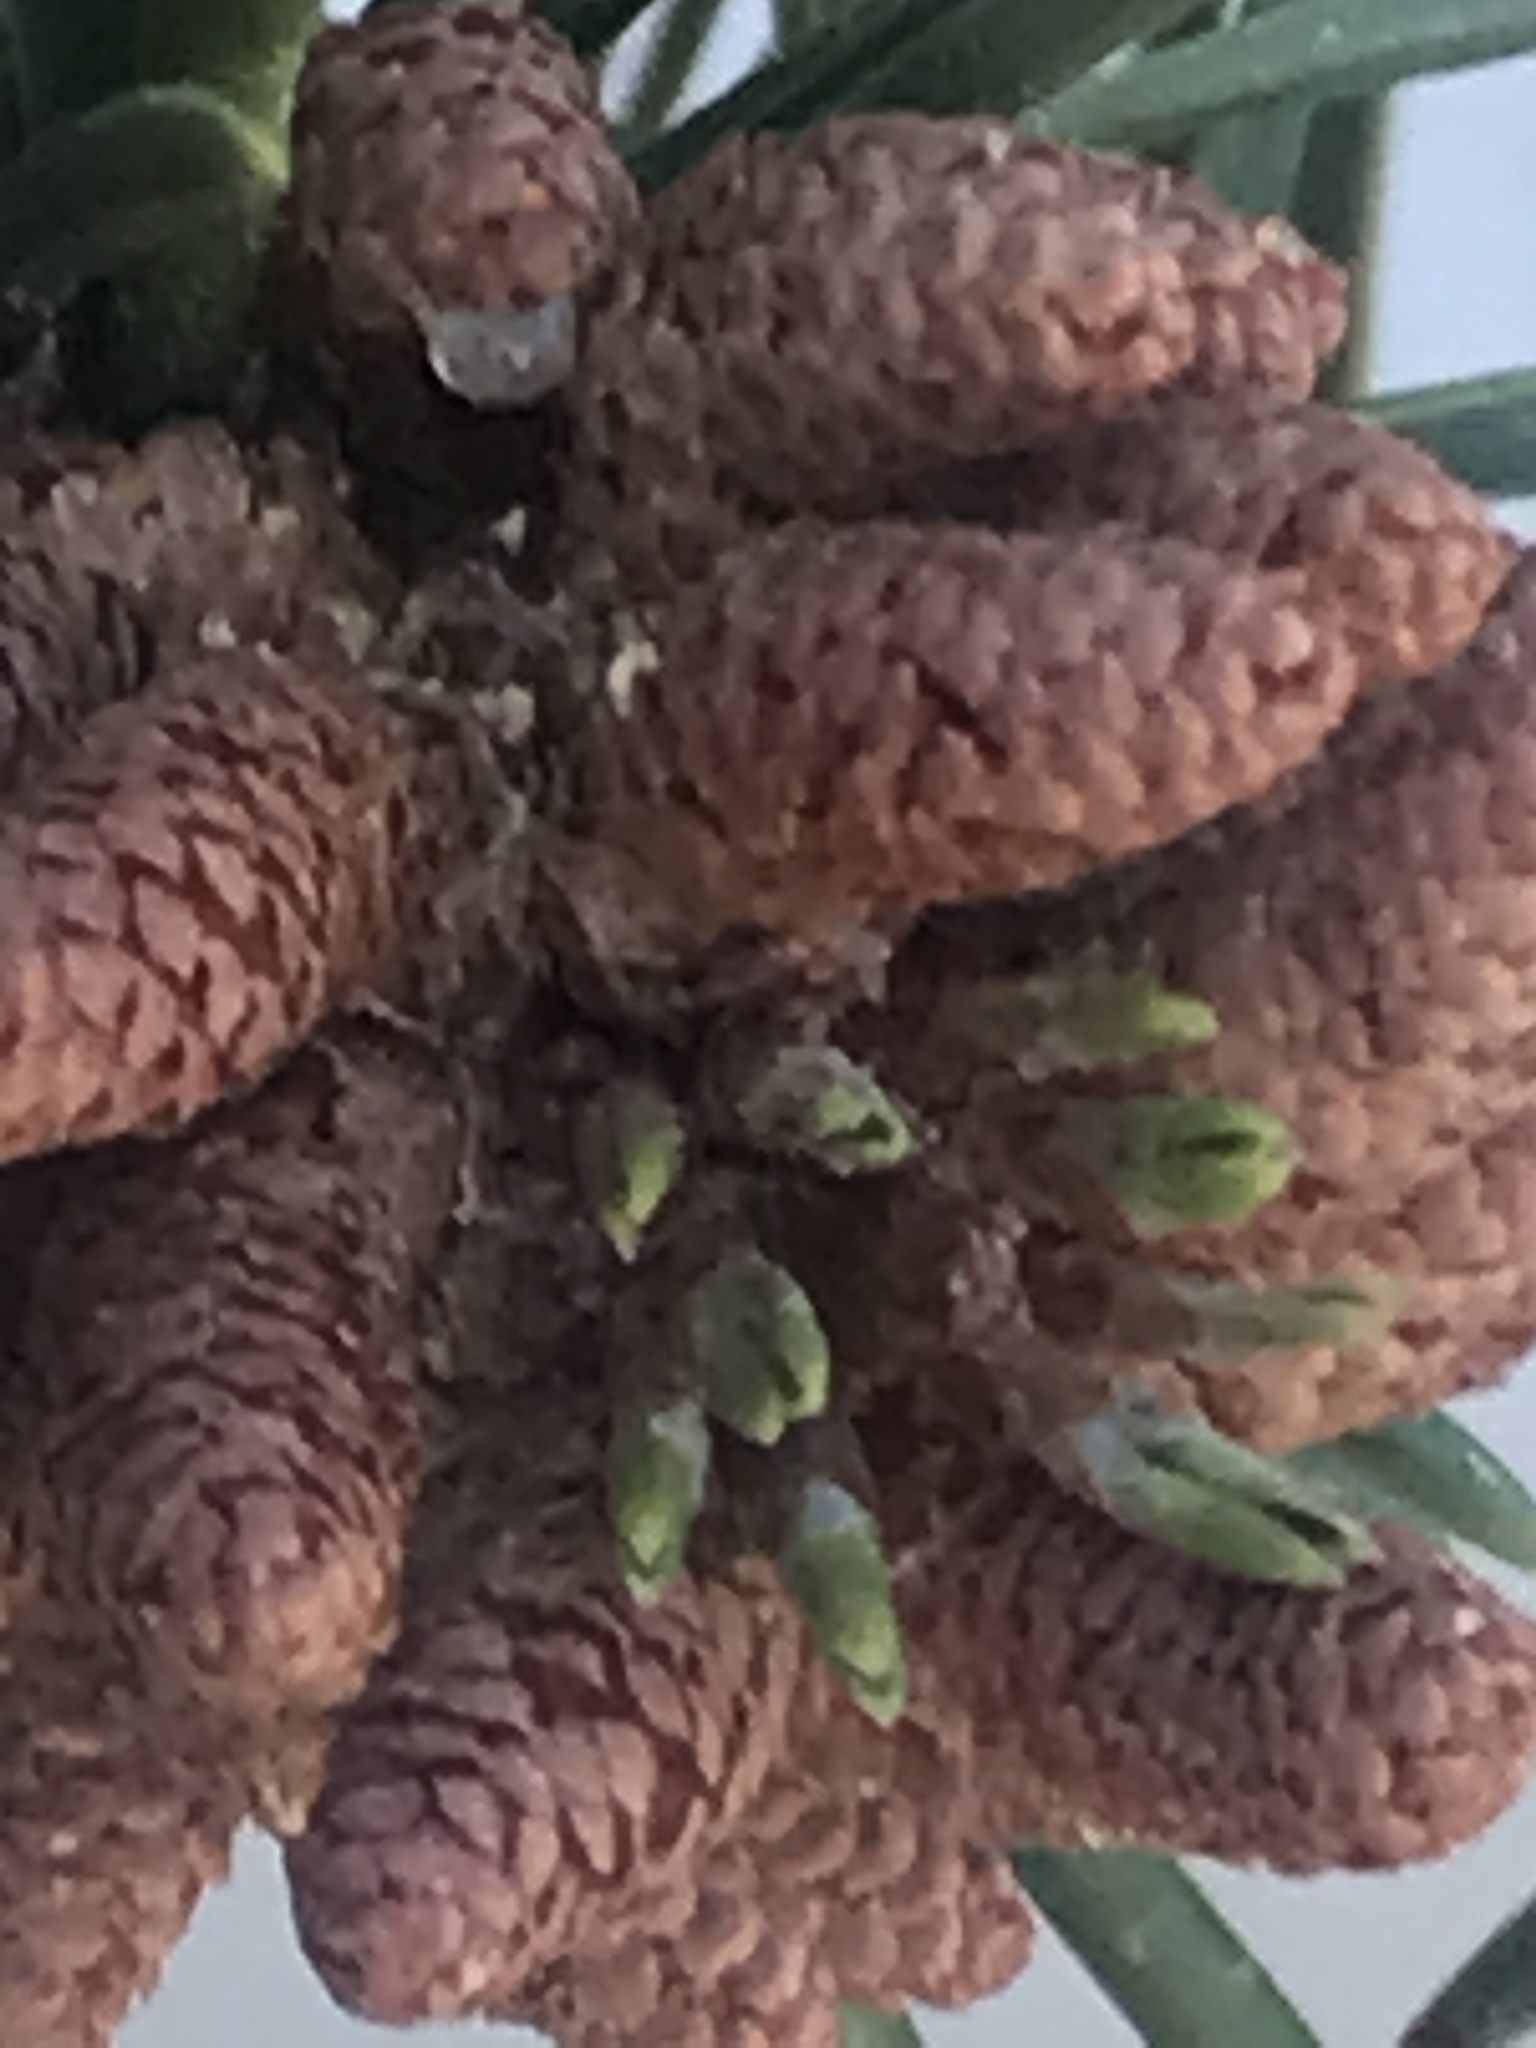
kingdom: Plantae
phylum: Tracheophyta
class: Pinopsida
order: Pinales
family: Pinaceae
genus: Pinus
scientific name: Pinus contorta
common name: Lodgepole pine
